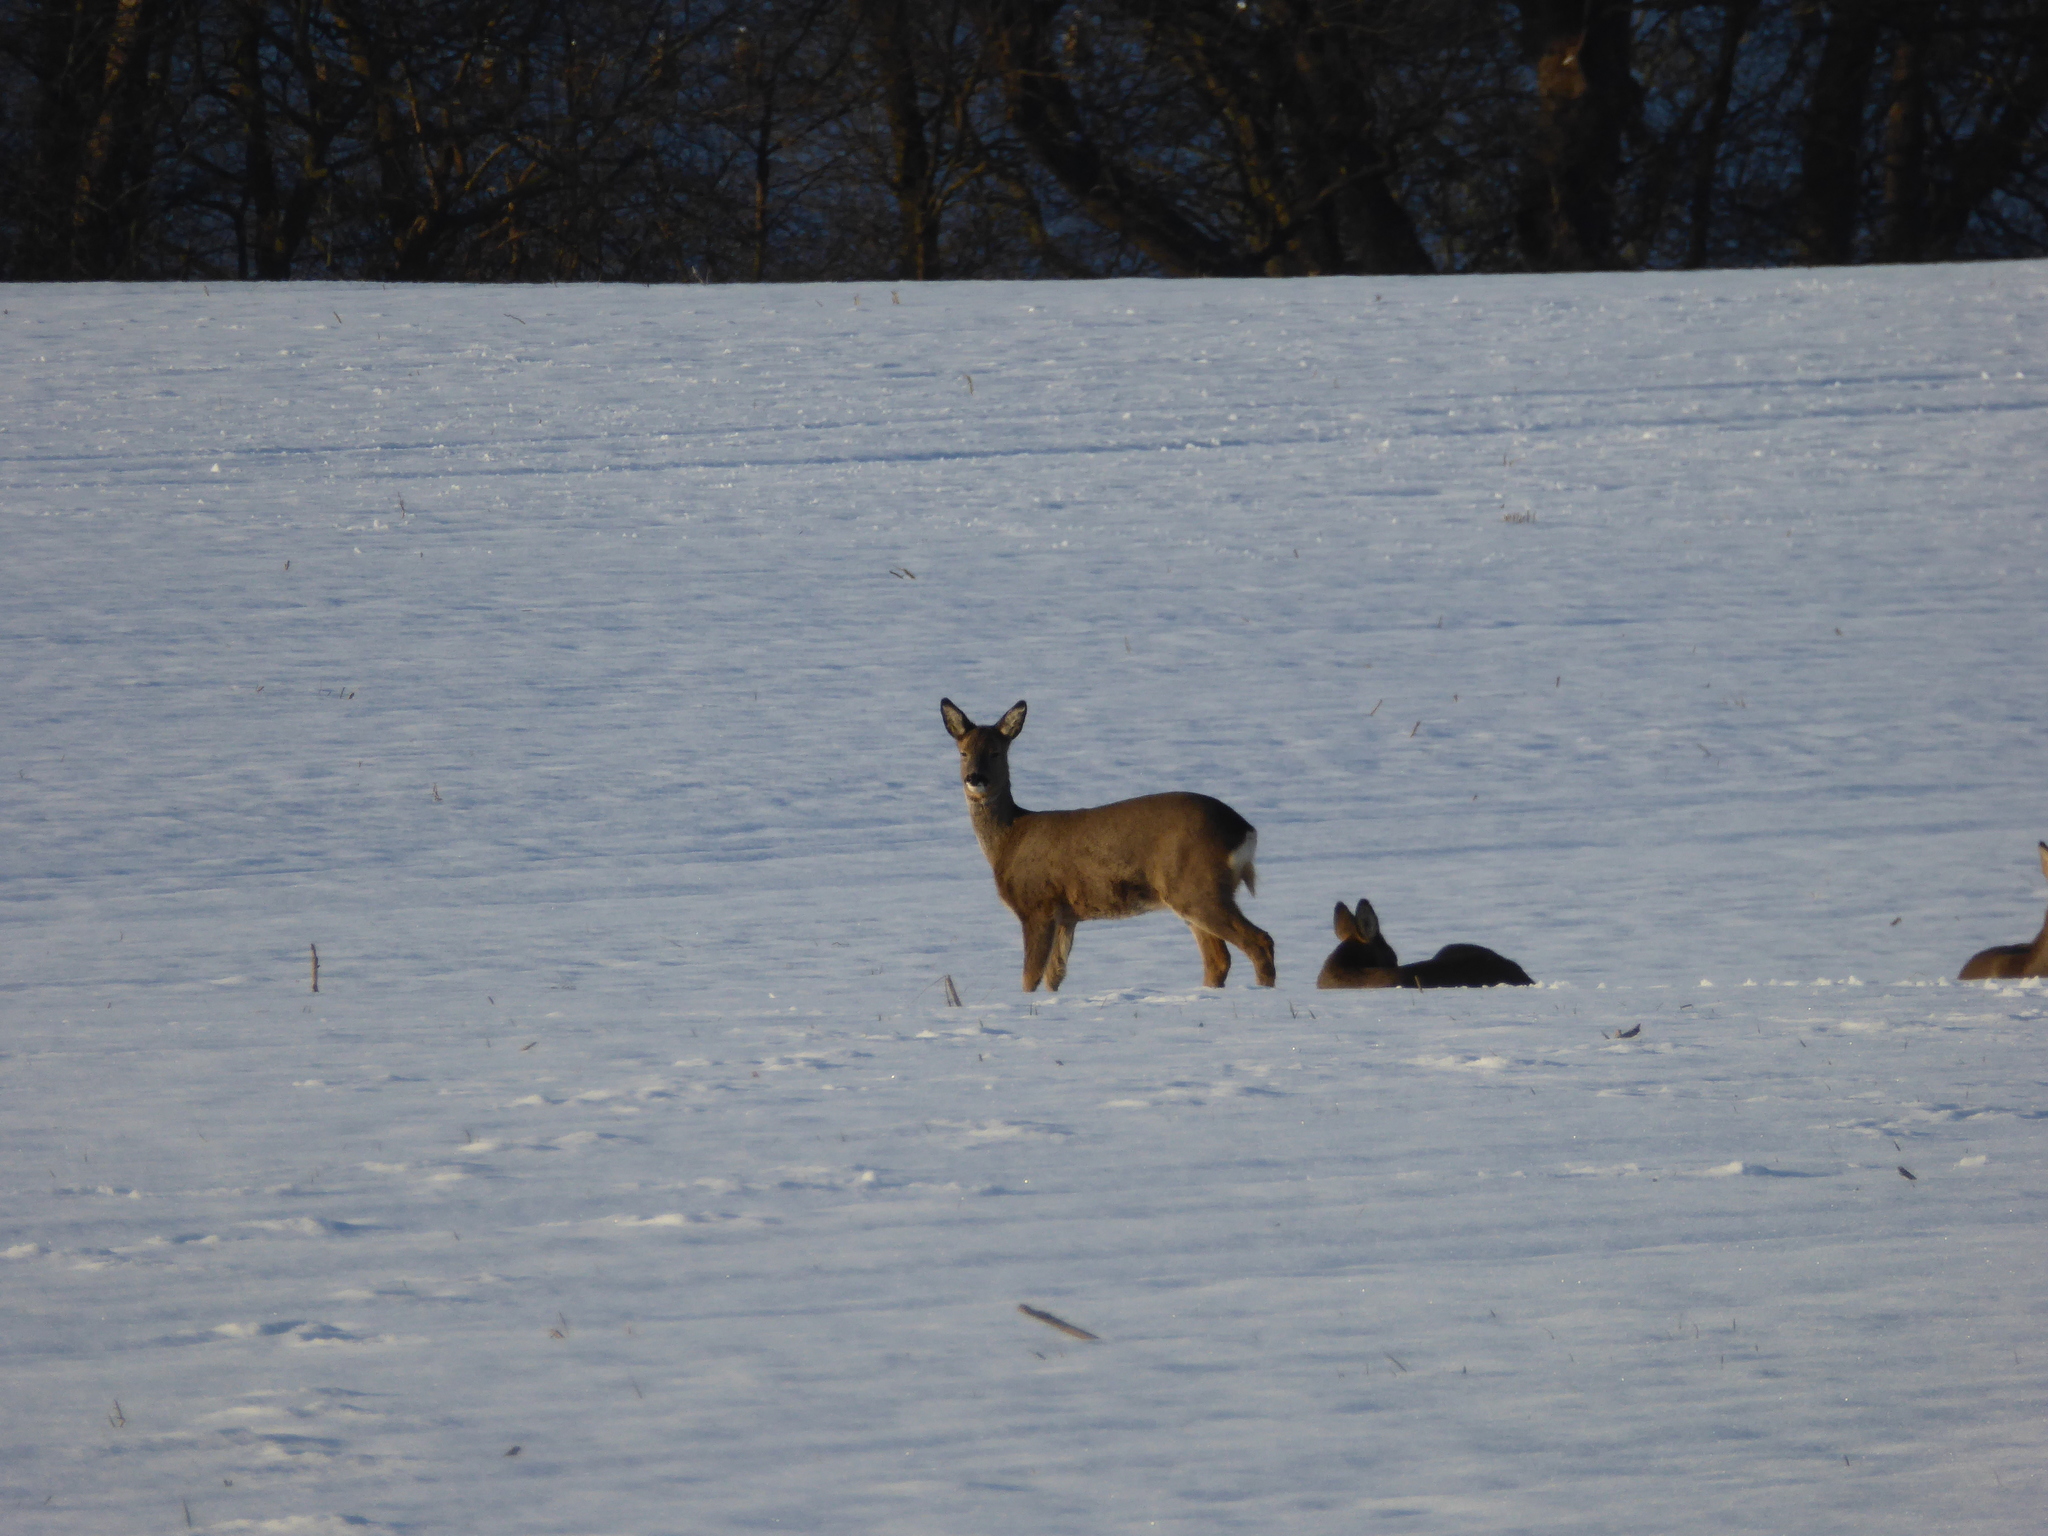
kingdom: Animalia
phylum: Chordata
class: Mammalia
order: Artiodactyla
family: Cervidae
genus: Capreolus
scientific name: Capreolus capreolus
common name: Western roe deer
